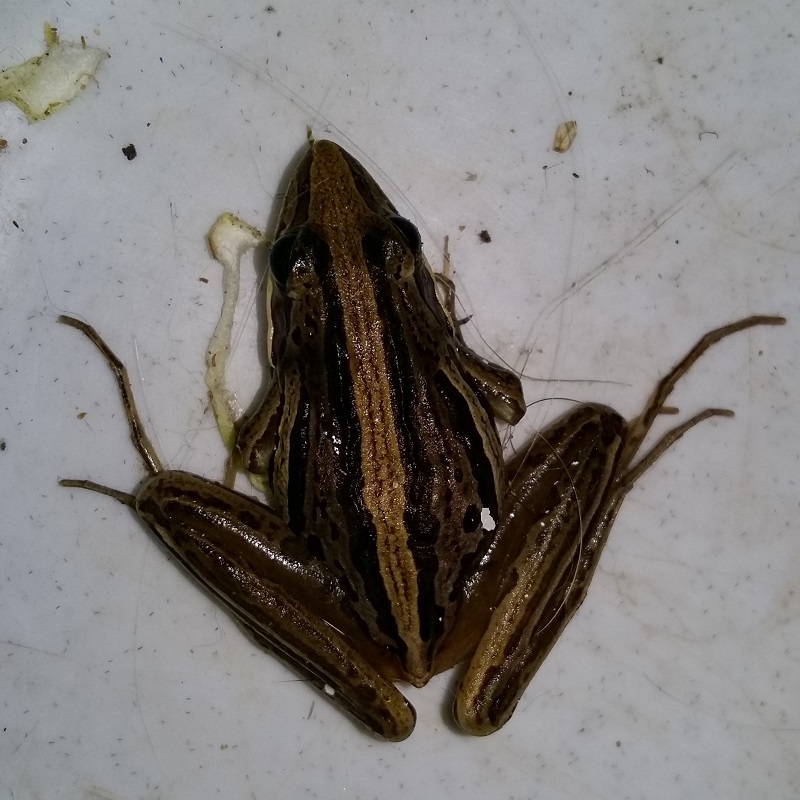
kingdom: Animalia
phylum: Chordata
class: Amphibia
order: Anura
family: Pyxicephalidae
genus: Strongylopus
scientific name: Strongylopus fasciatus
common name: Striped stream frog
